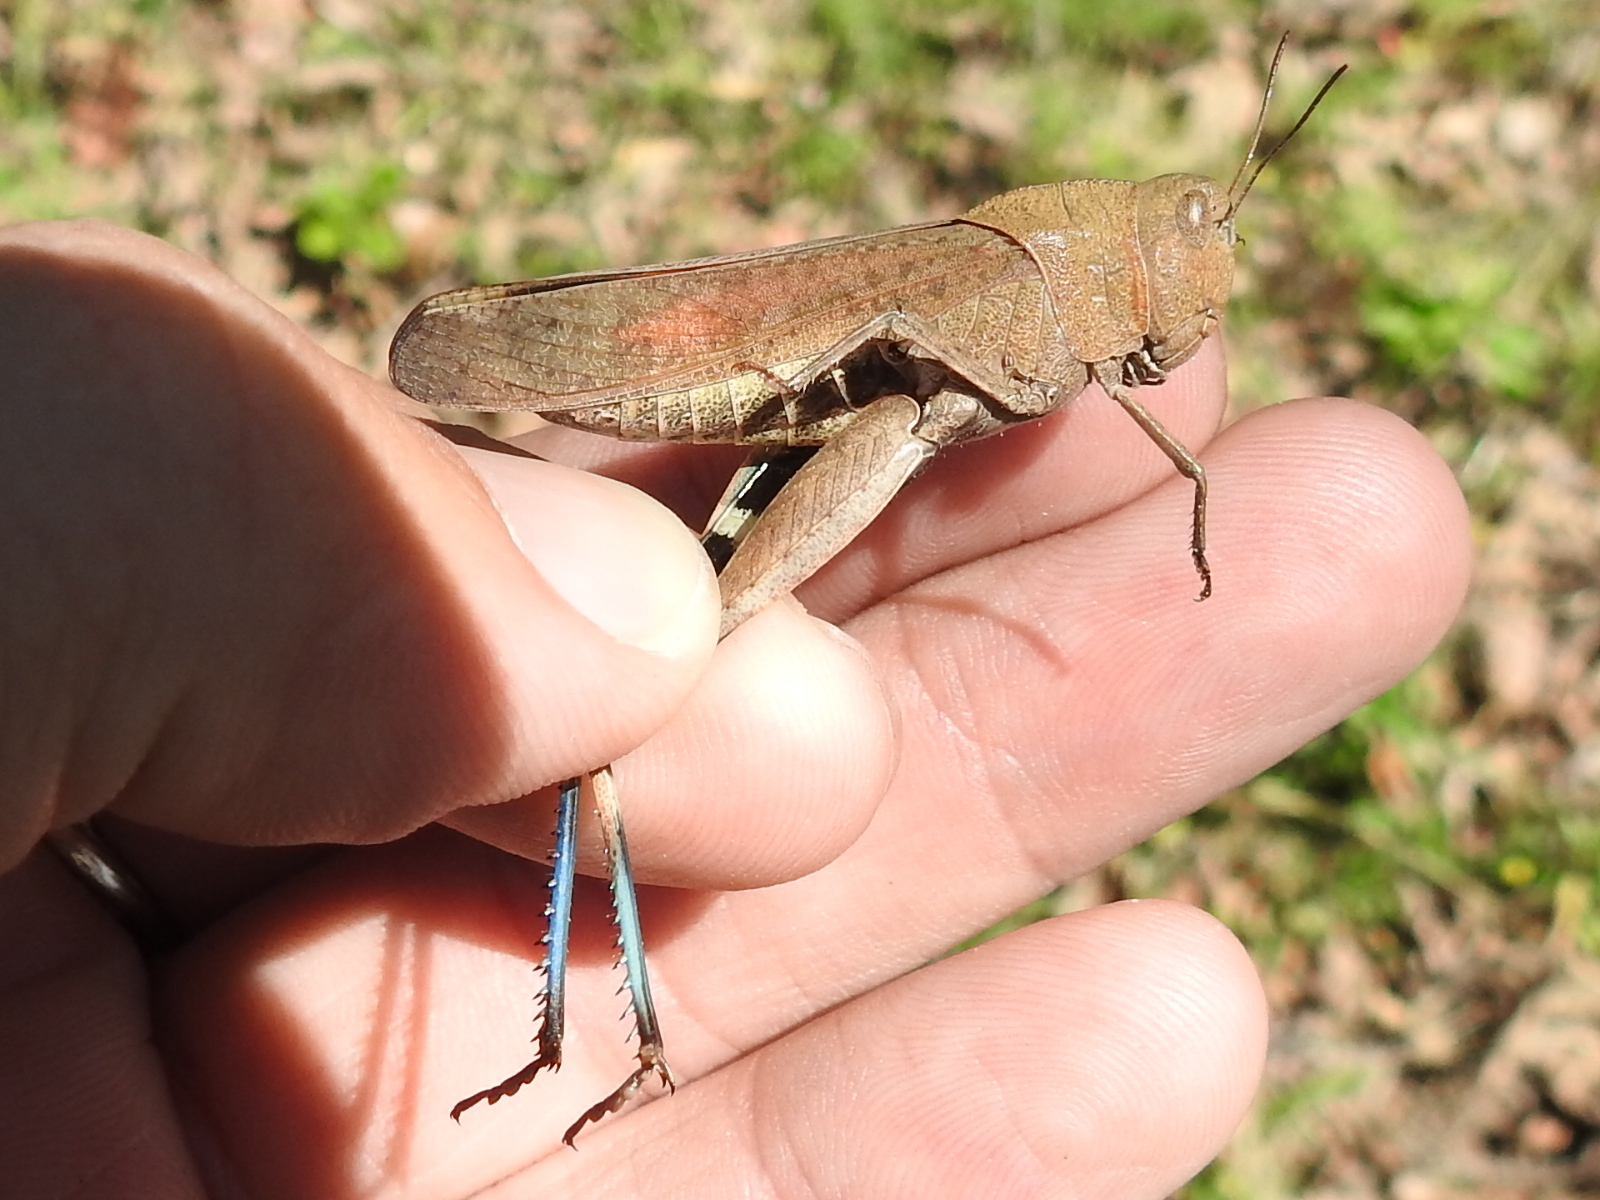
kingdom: Animalia
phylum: Arthropoda
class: Insecta
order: Orthoptera
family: Acrididae
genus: Arphia
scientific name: Arphia simplex
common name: Plains yellow-winged grasshopper
